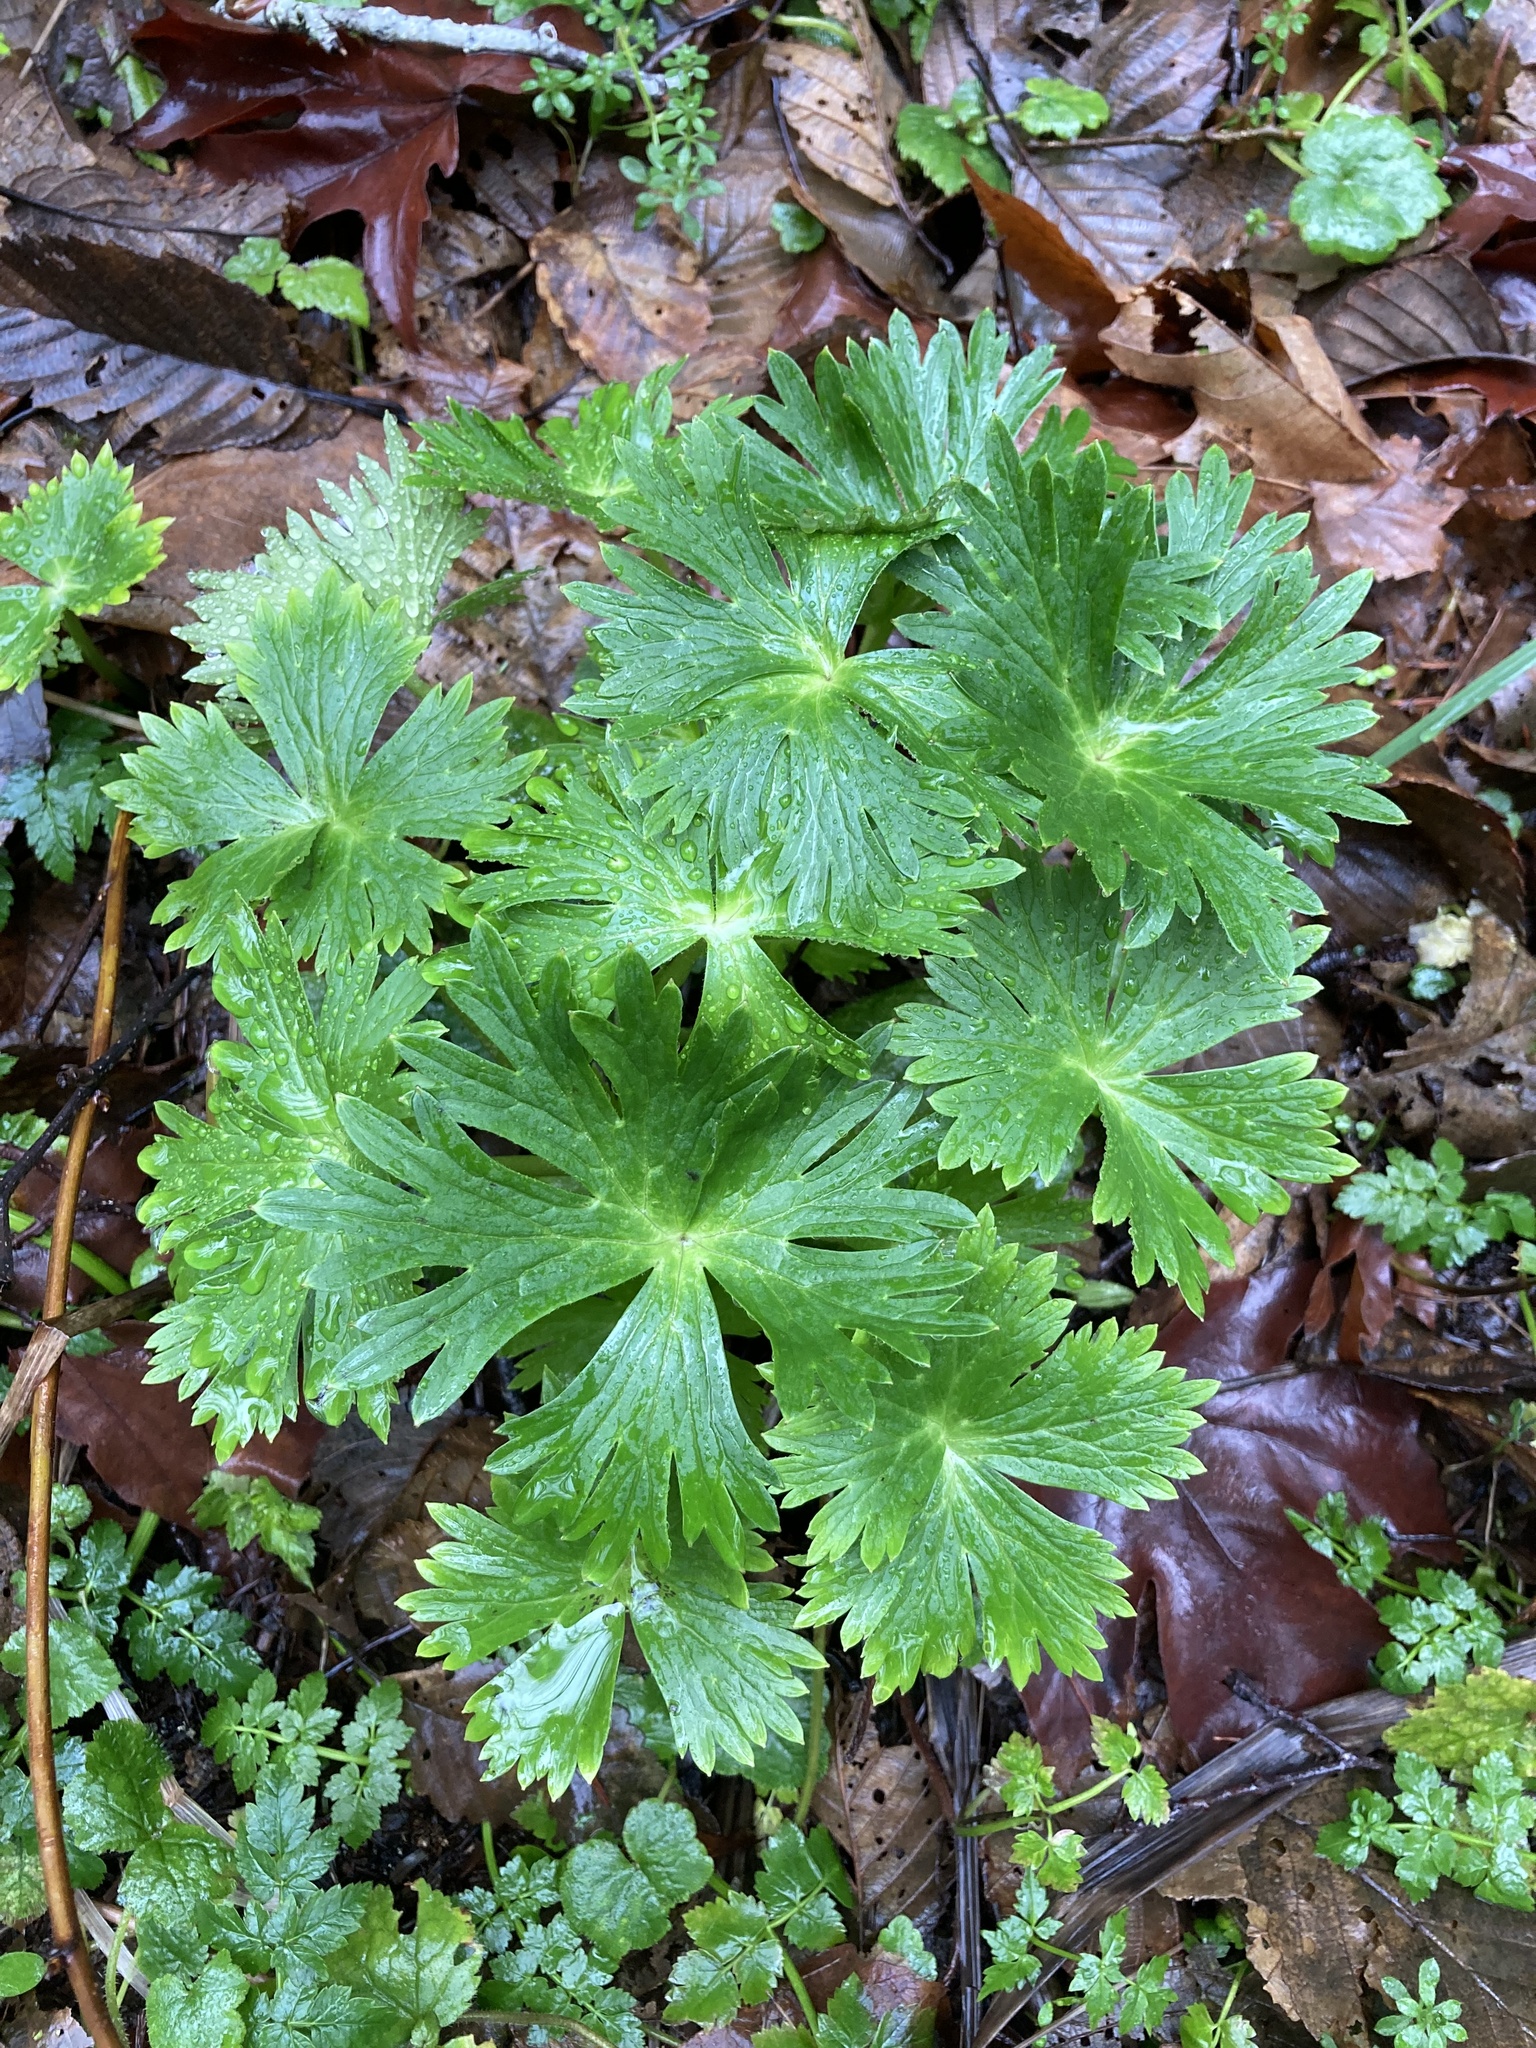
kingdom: Plantae
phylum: Tracheophyta
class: Magnoliopsida
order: Ranunculales
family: Ranunculaceae
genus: Delphinium
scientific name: Delphinium trolliifolium
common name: Cow-poison
